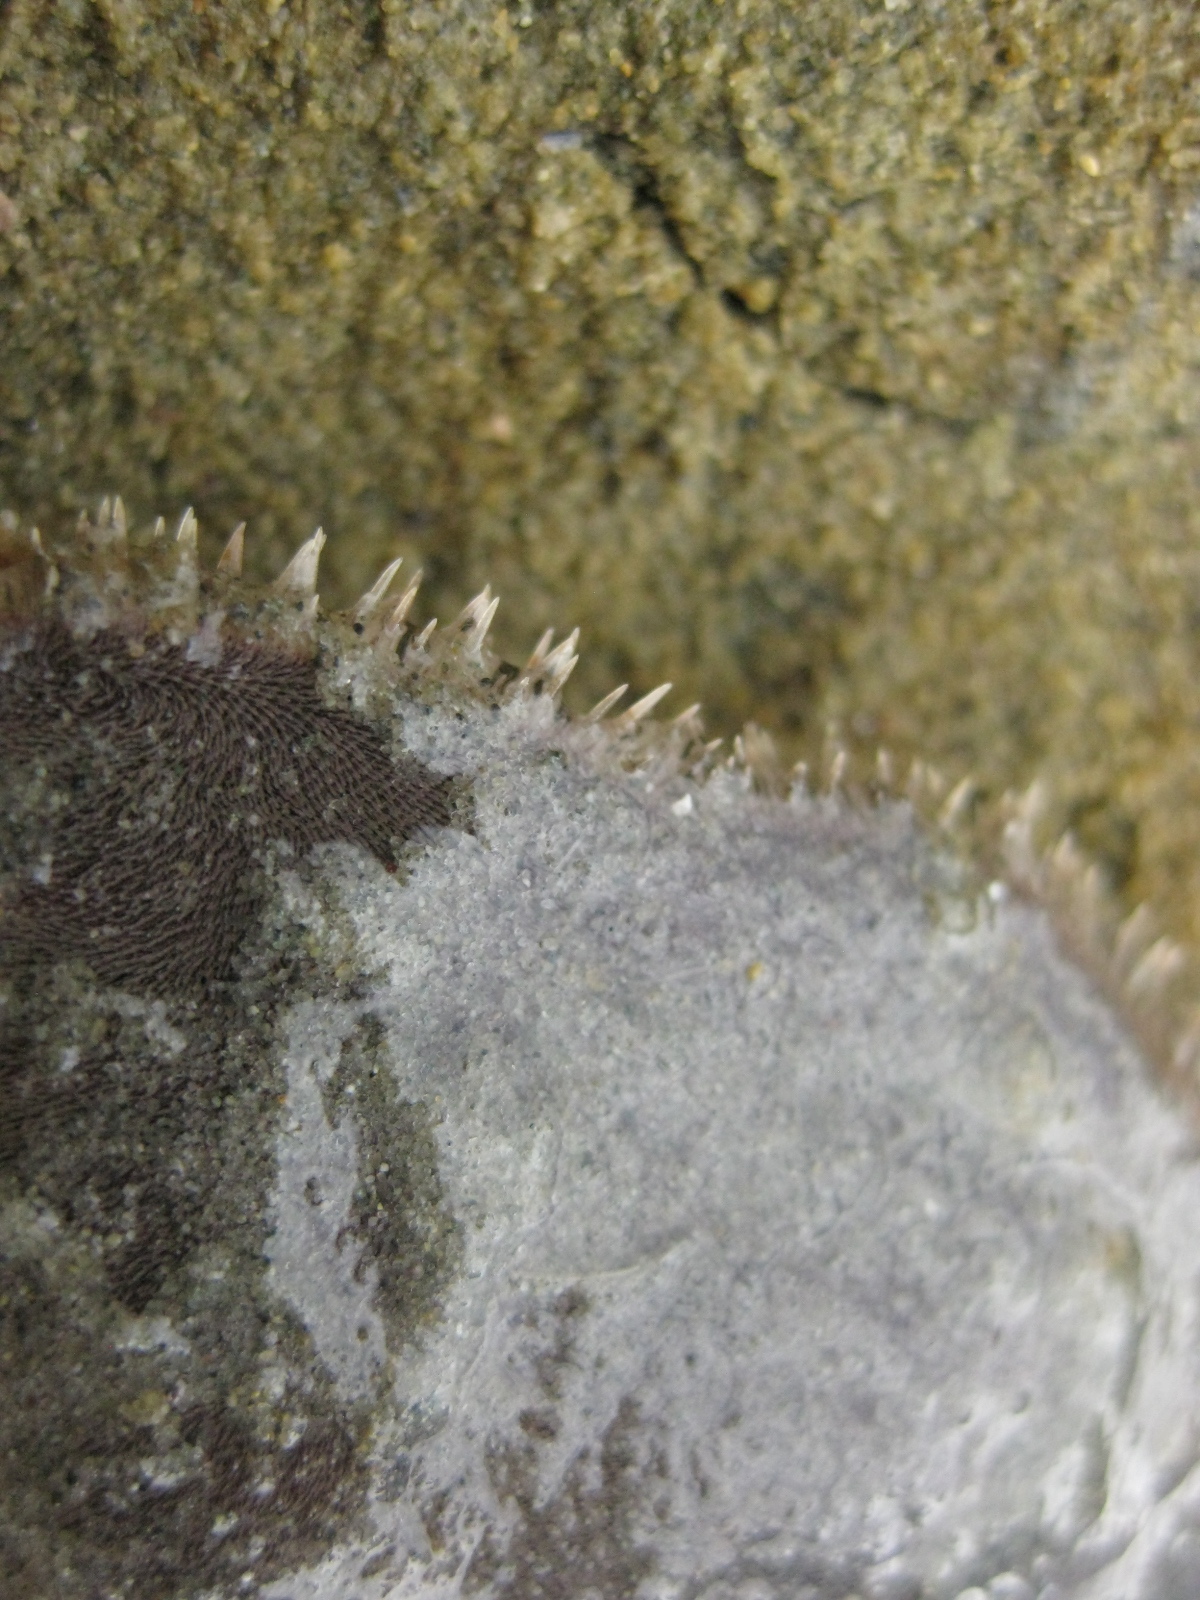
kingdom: Animalia
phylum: Echinodermata
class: Echinoidea
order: Clypeasteroida
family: Clypeasteridae
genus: Fellaster
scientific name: Fellaster zelandiae
